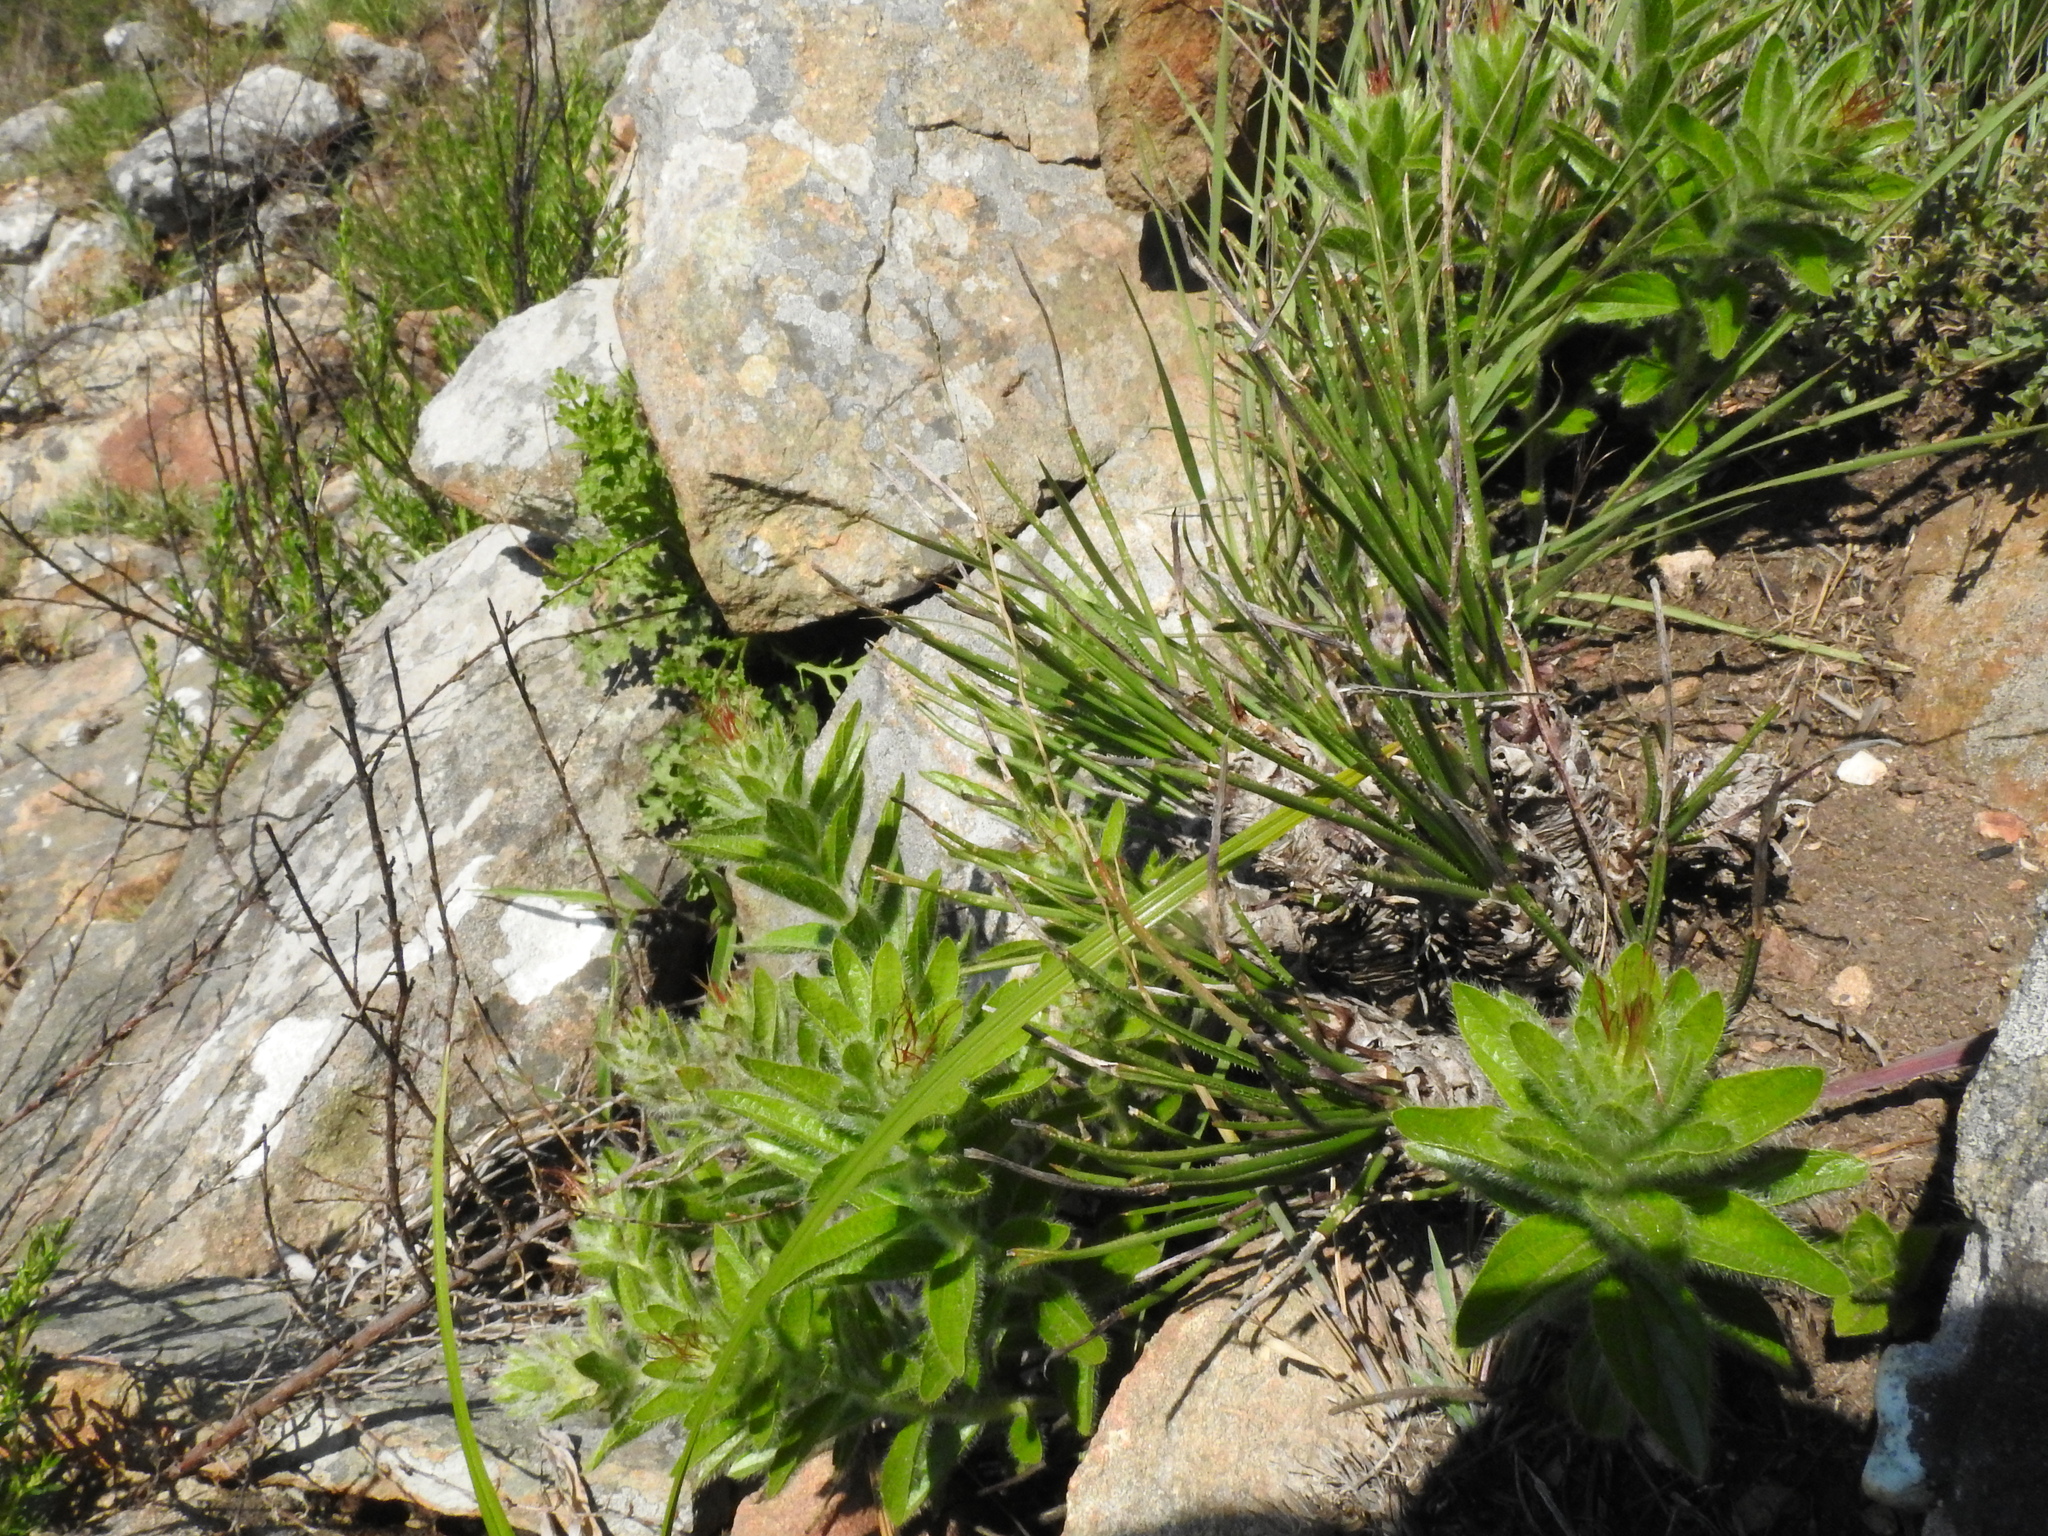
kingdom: Plantae
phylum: Tracheophyta
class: Liliopsida
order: Asparagales
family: Asphodelaceae
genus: Aloe
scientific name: Aloe chortolirioides
